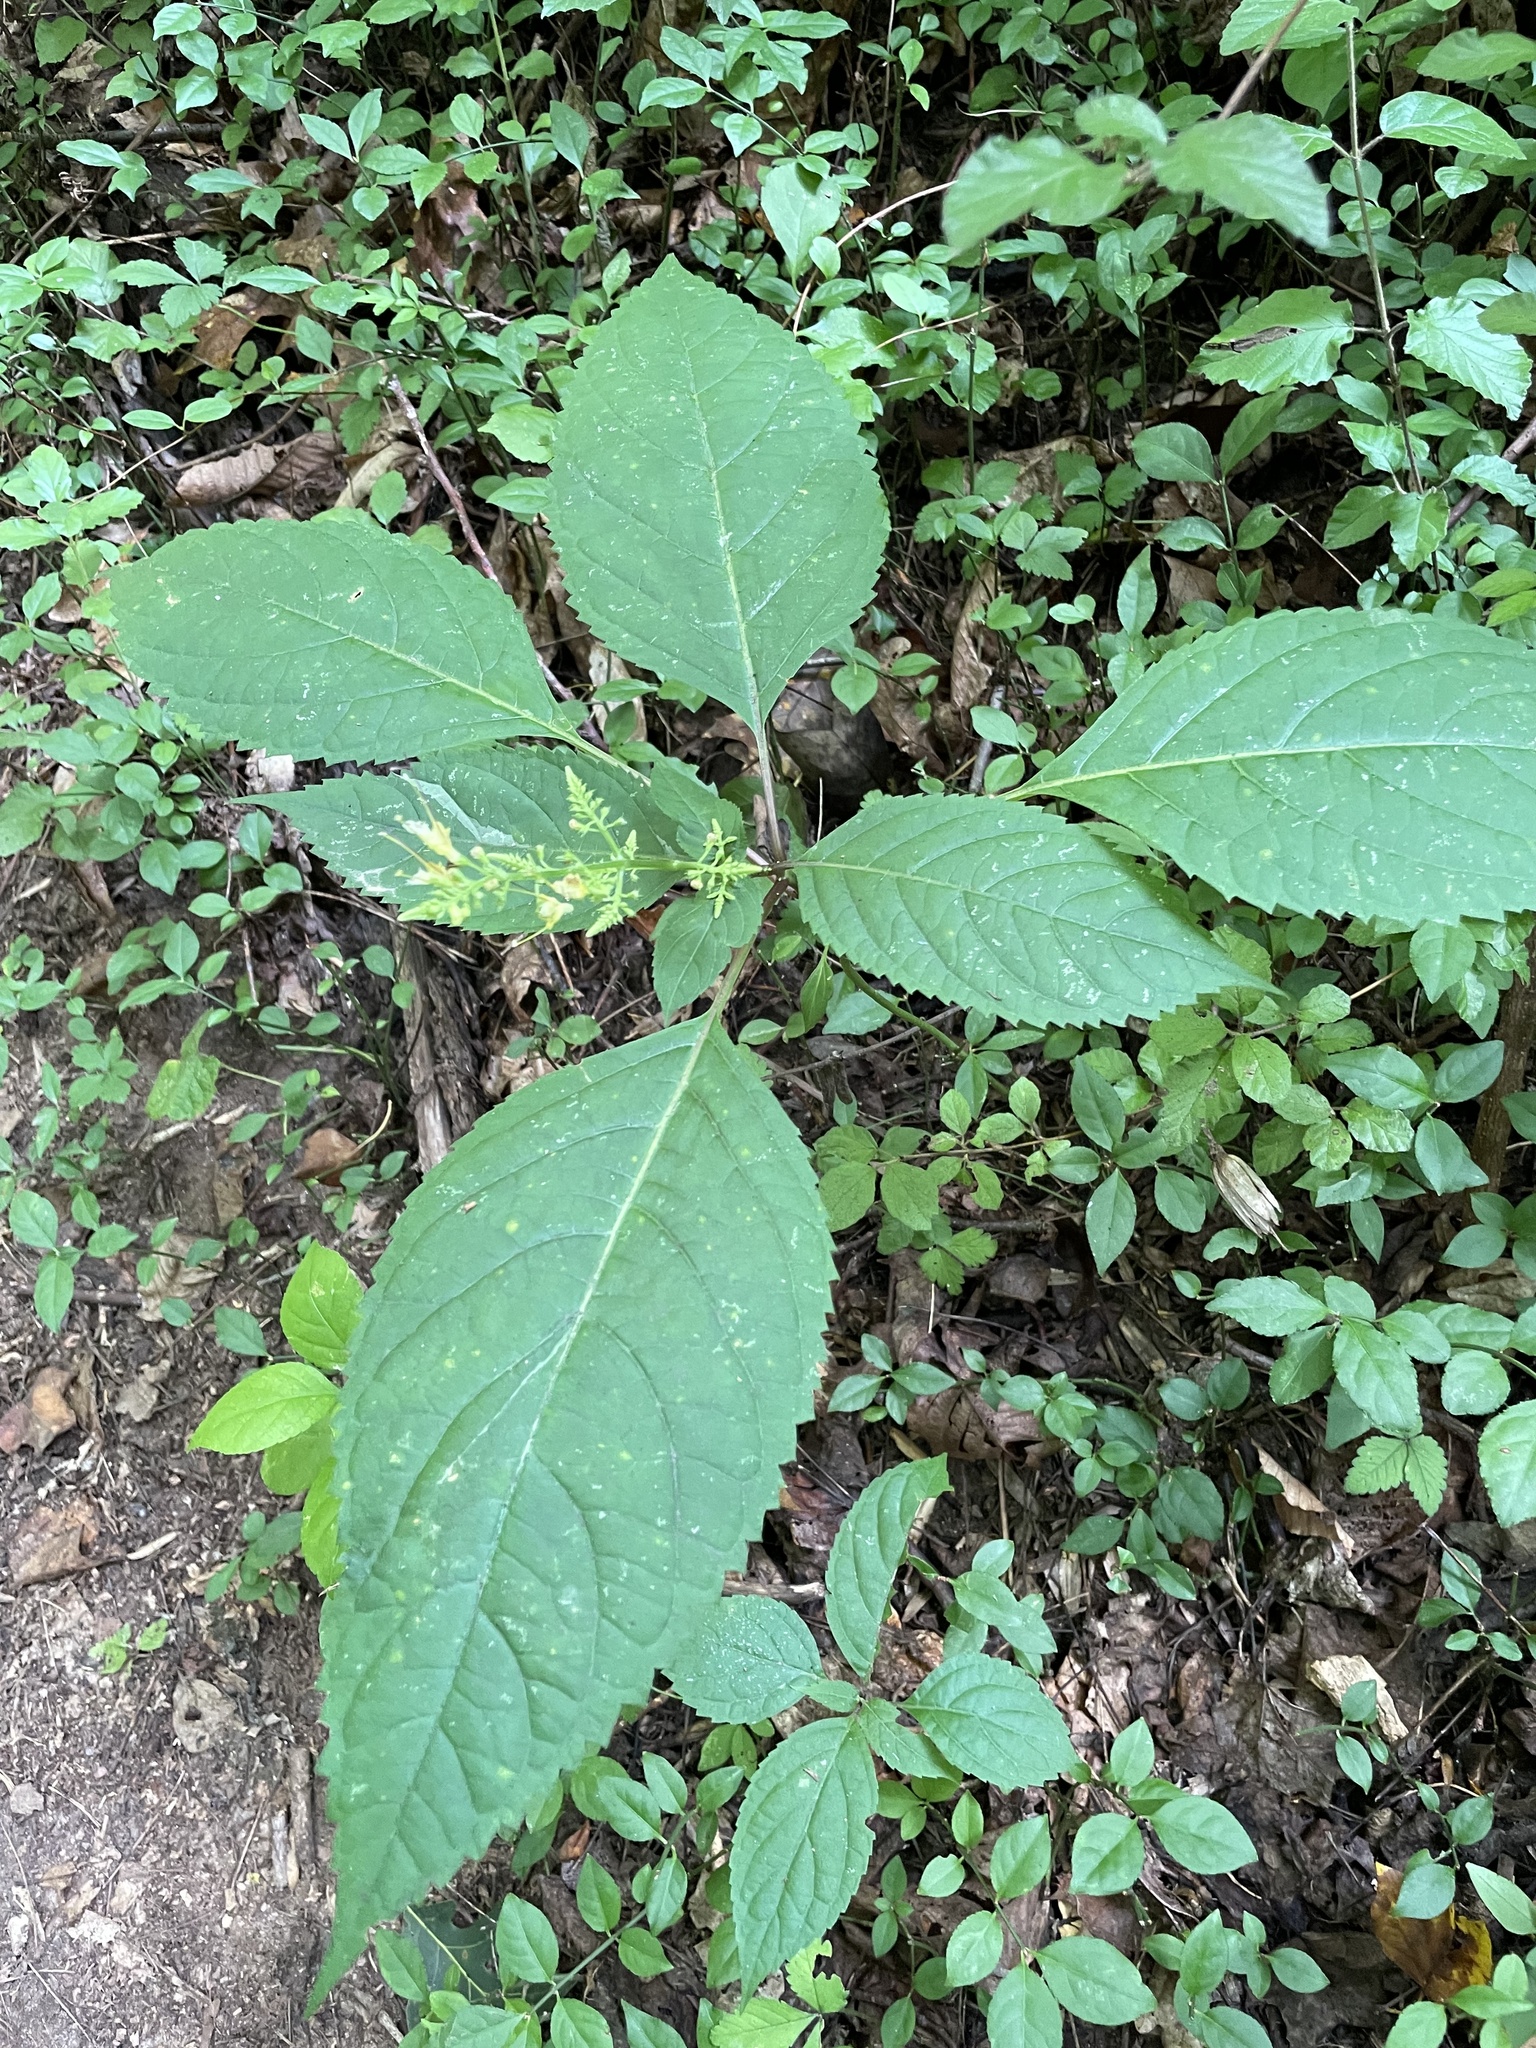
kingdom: Plantae
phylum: Tracheophyta
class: Magnoliopsida
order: Lamiales
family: Lamiaceae
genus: Collinsonia
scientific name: Collinsonia canadensis
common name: Northern horsebalm
